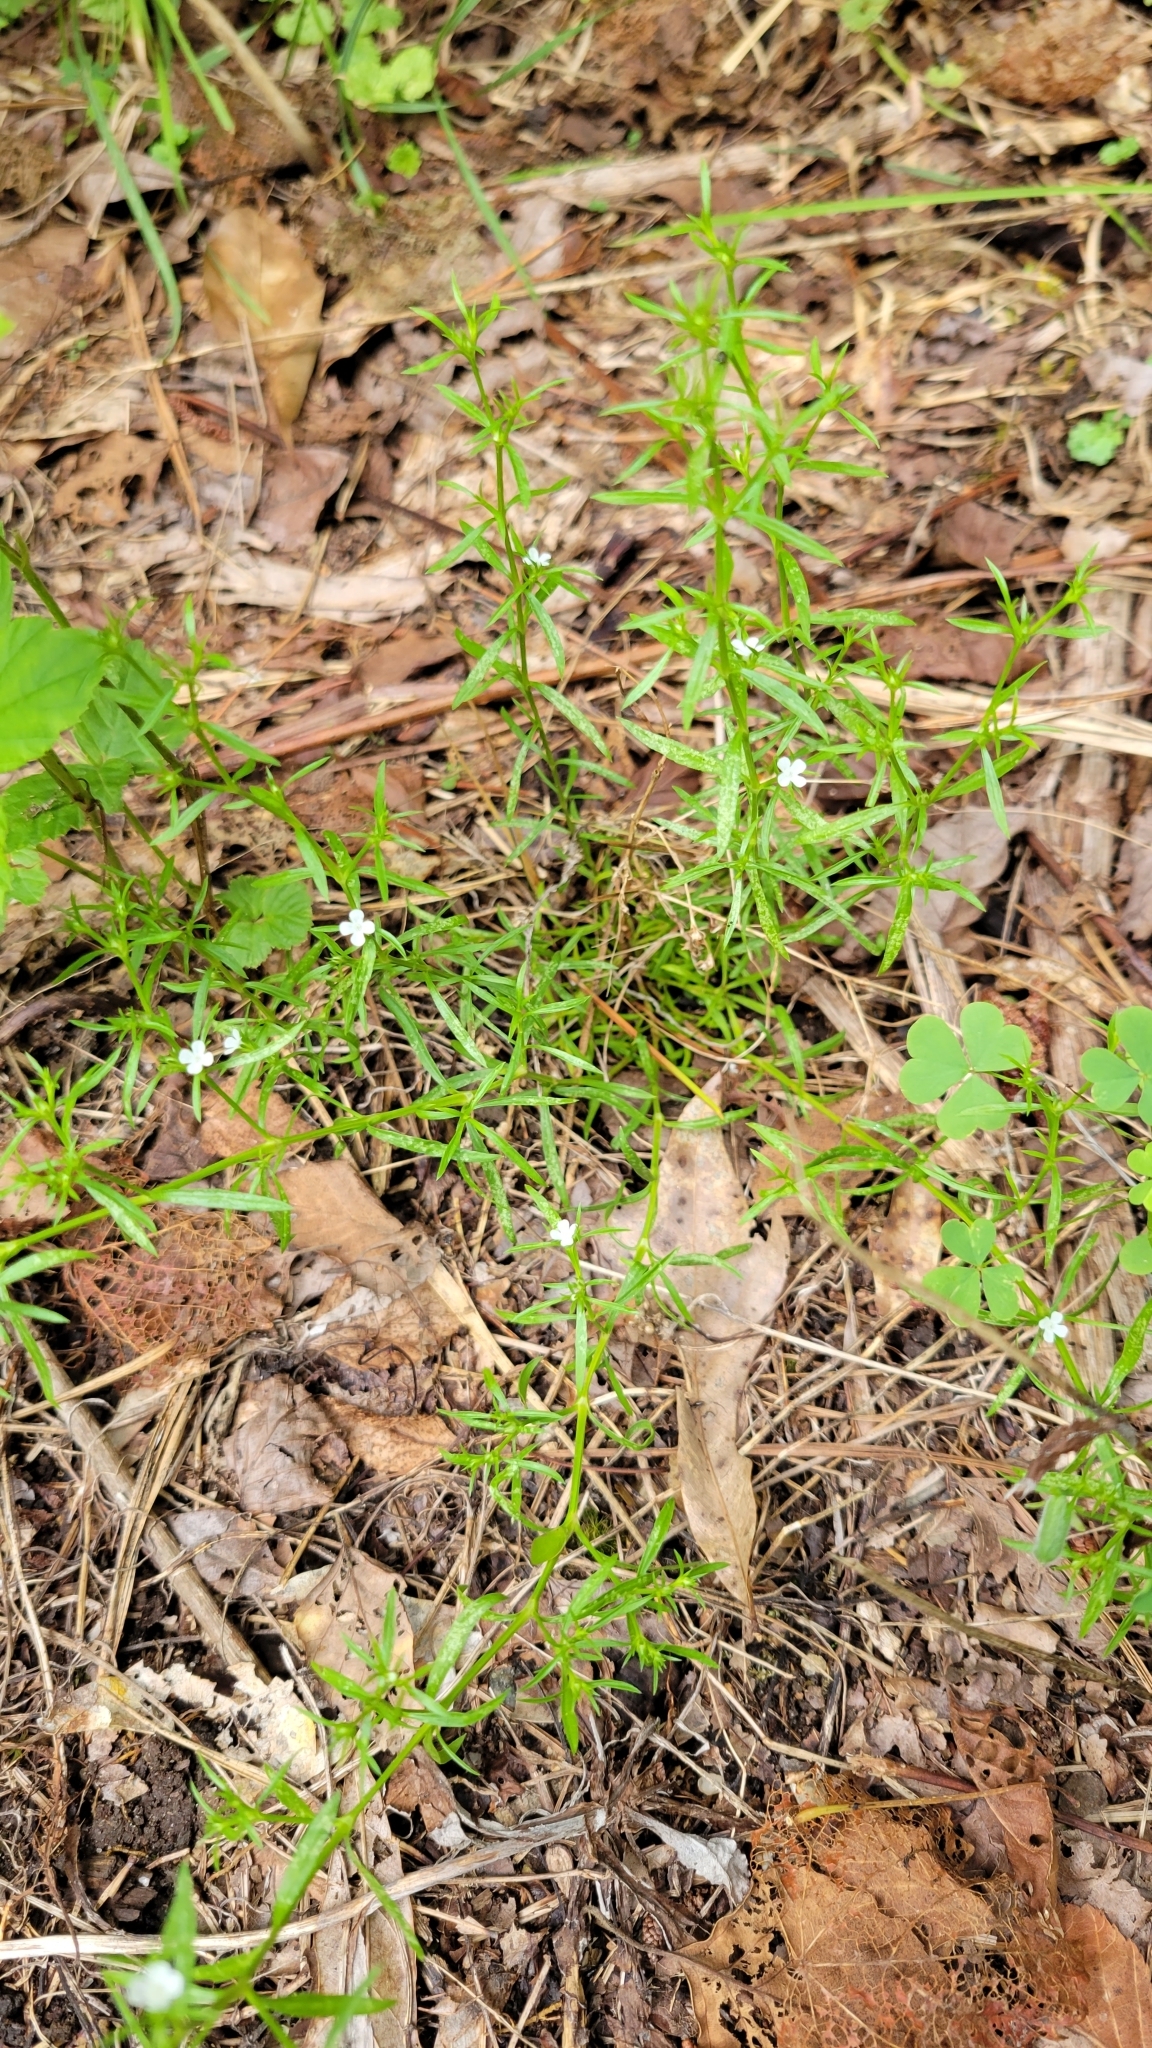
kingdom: Plantae
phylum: Tracheophyta
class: Magnoliopsida
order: Lamiales
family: Tetrachondraceae
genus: Polypremum
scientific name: Polypremum procumbens
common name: Juniper-leaf
